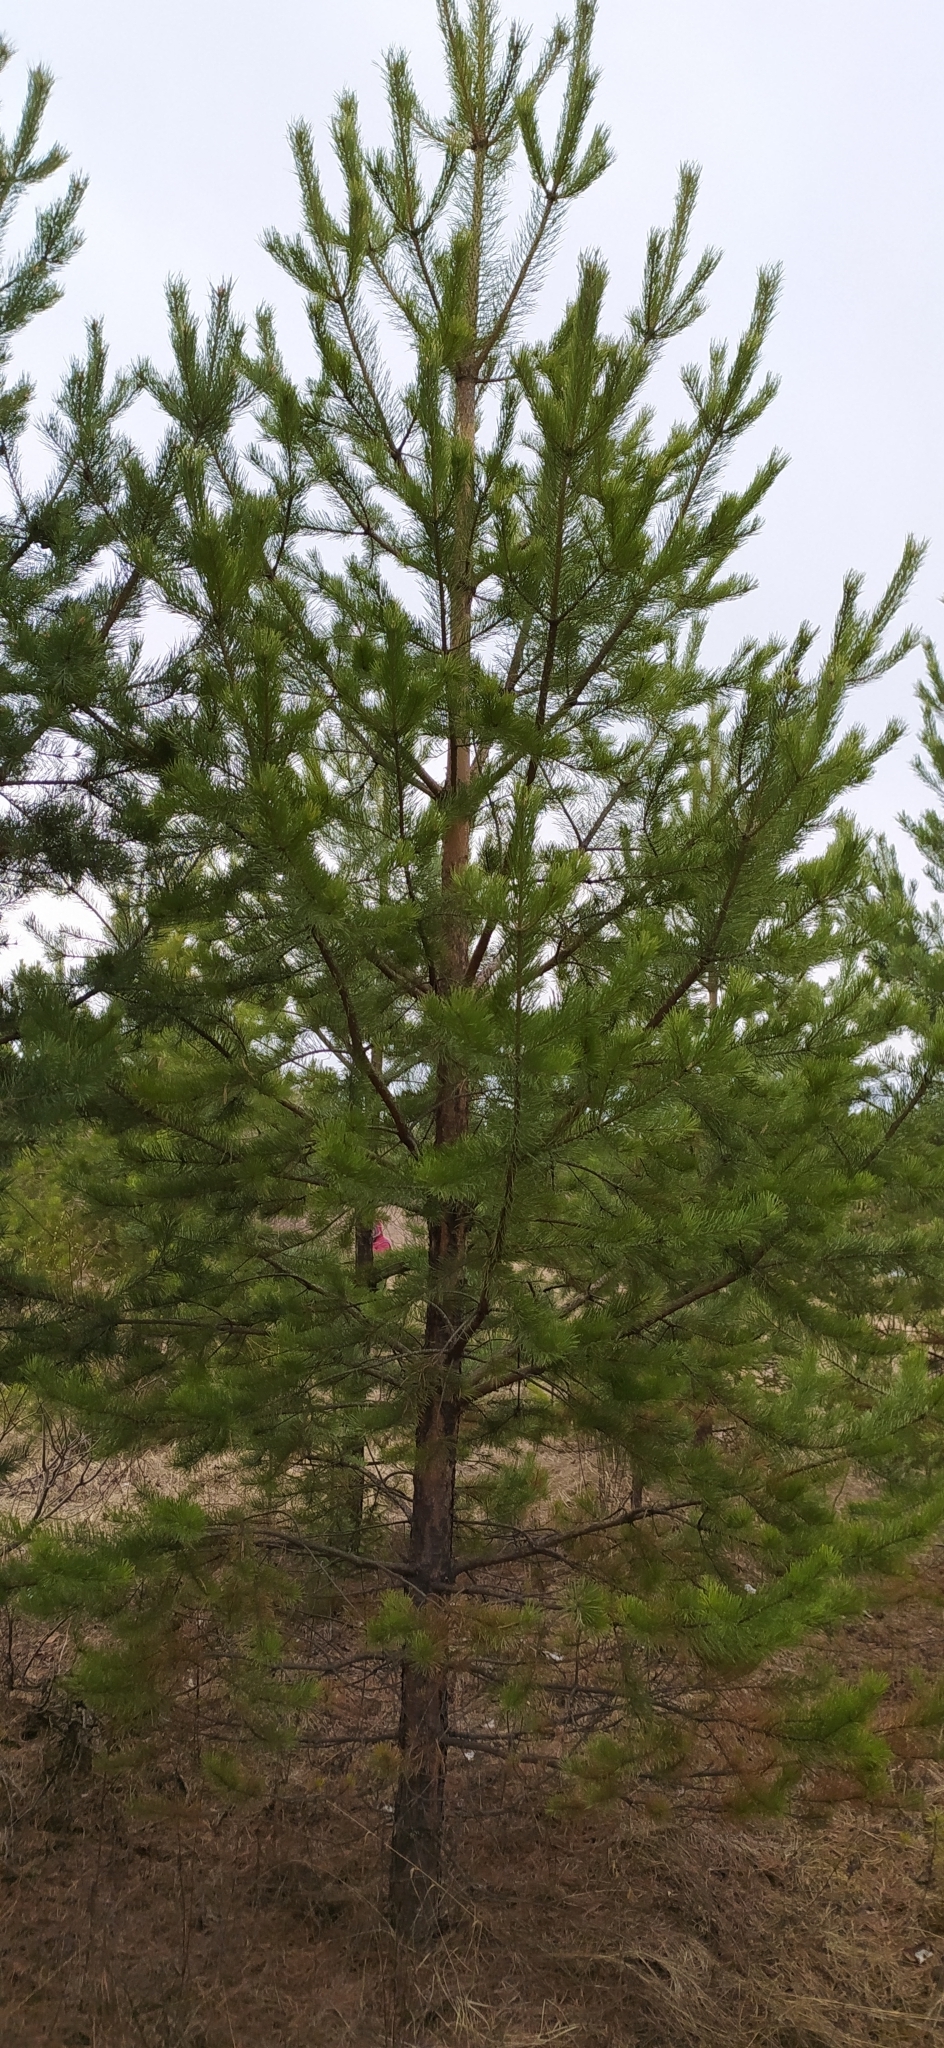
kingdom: Plantae
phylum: Tracheophyta
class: Pinopsida
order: Pinales
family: Pinaceae
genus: Pinus
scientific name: Pinus sylvestris
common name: Scots pine
